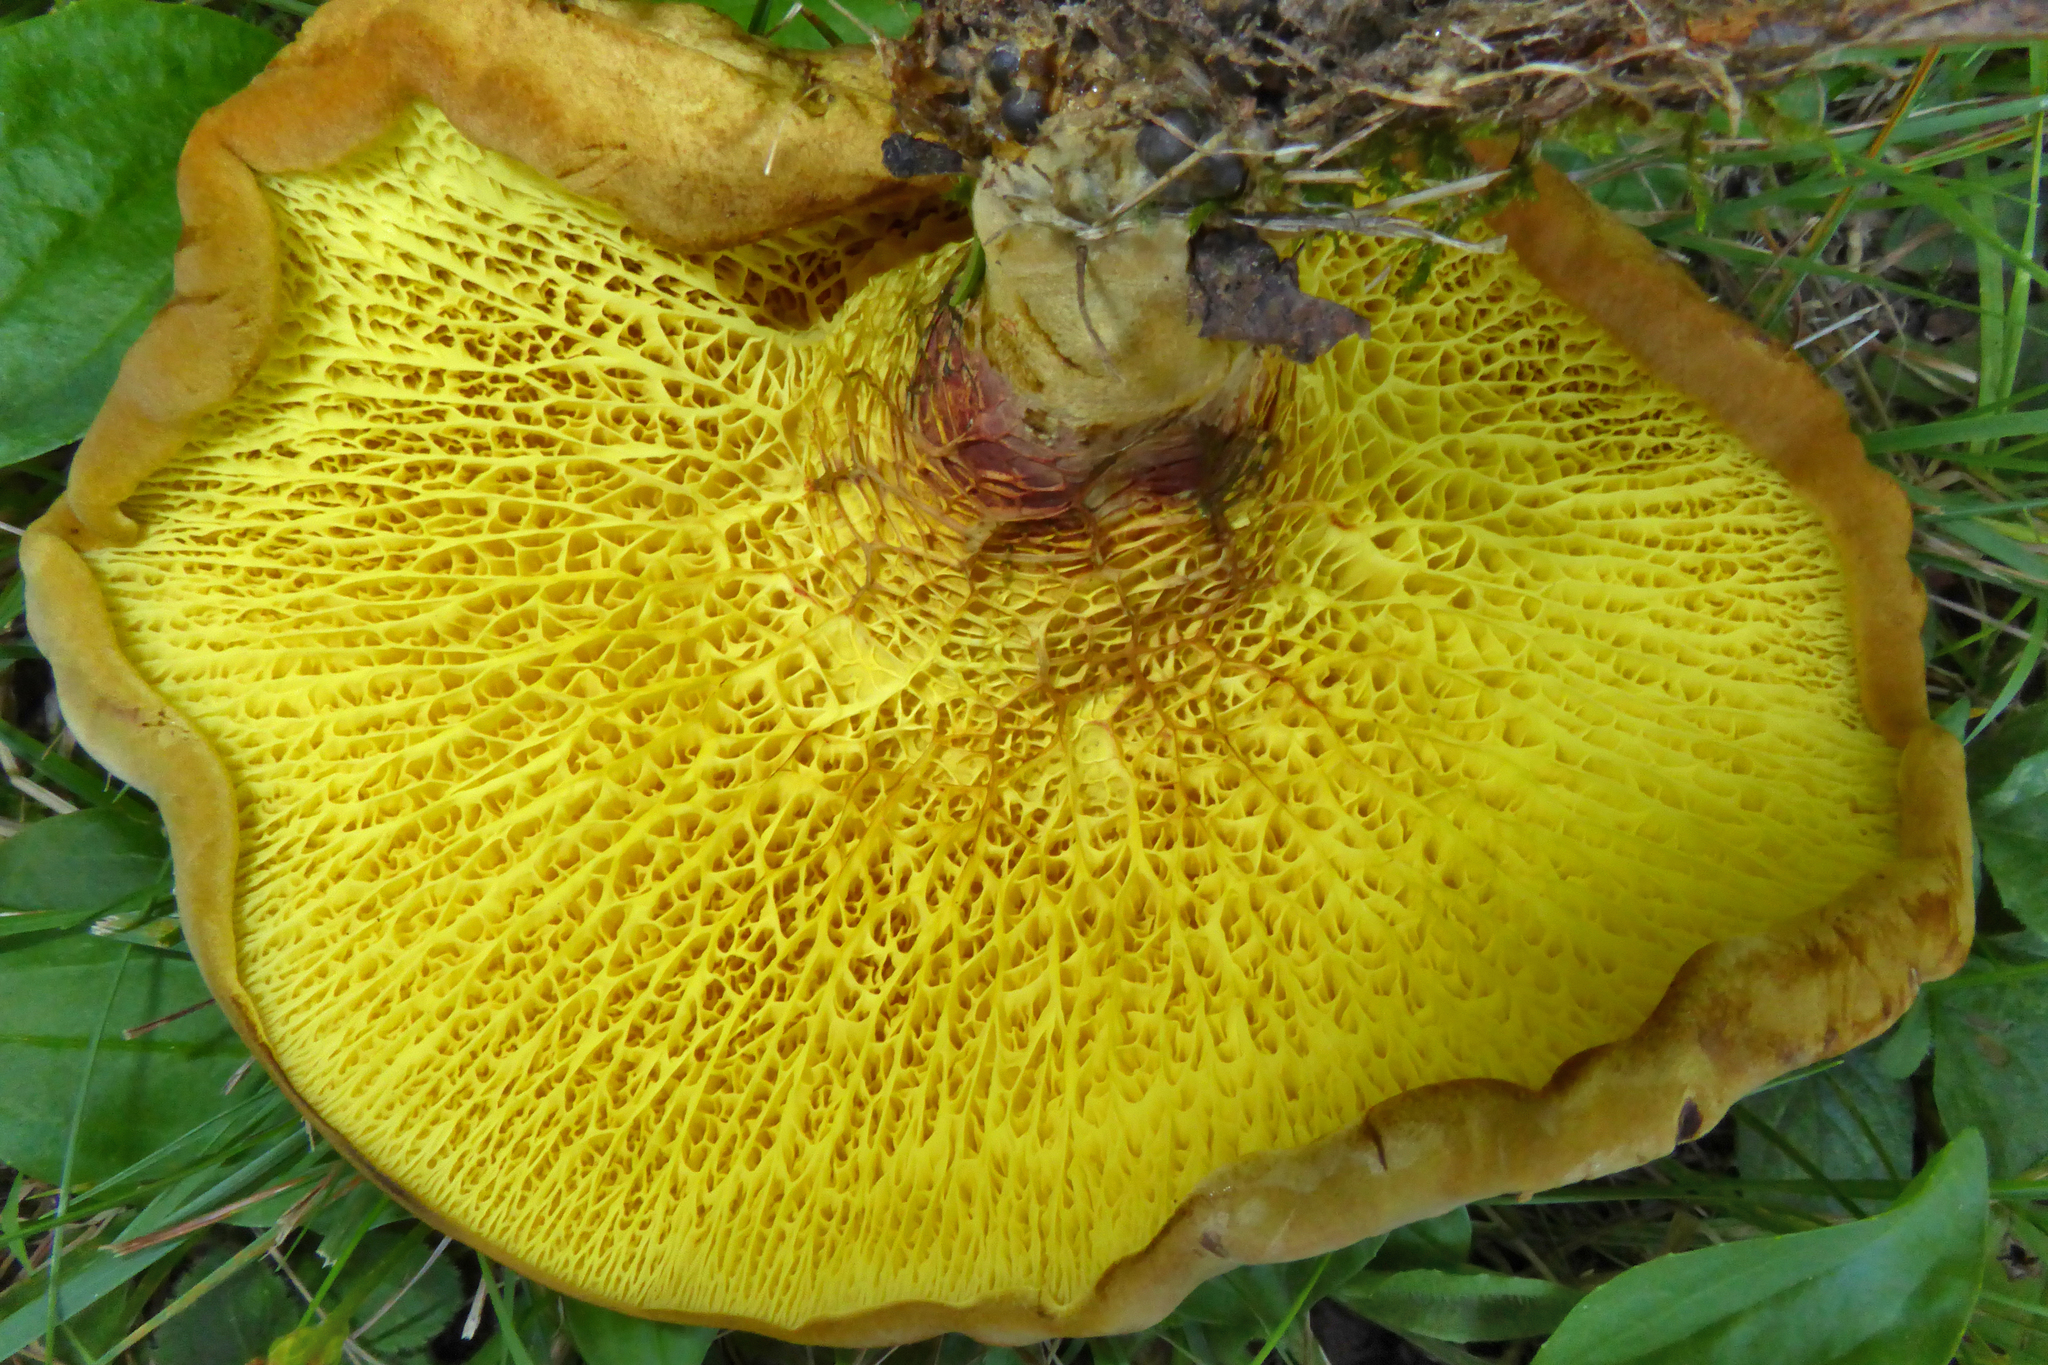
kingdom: Fungi
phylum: Basidiomycota
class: Agaricomycetes
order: Boletales
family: Boletinellaceae
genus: Boletinellus
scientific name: Boletinellus merulioides
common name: Ash tree bolete
